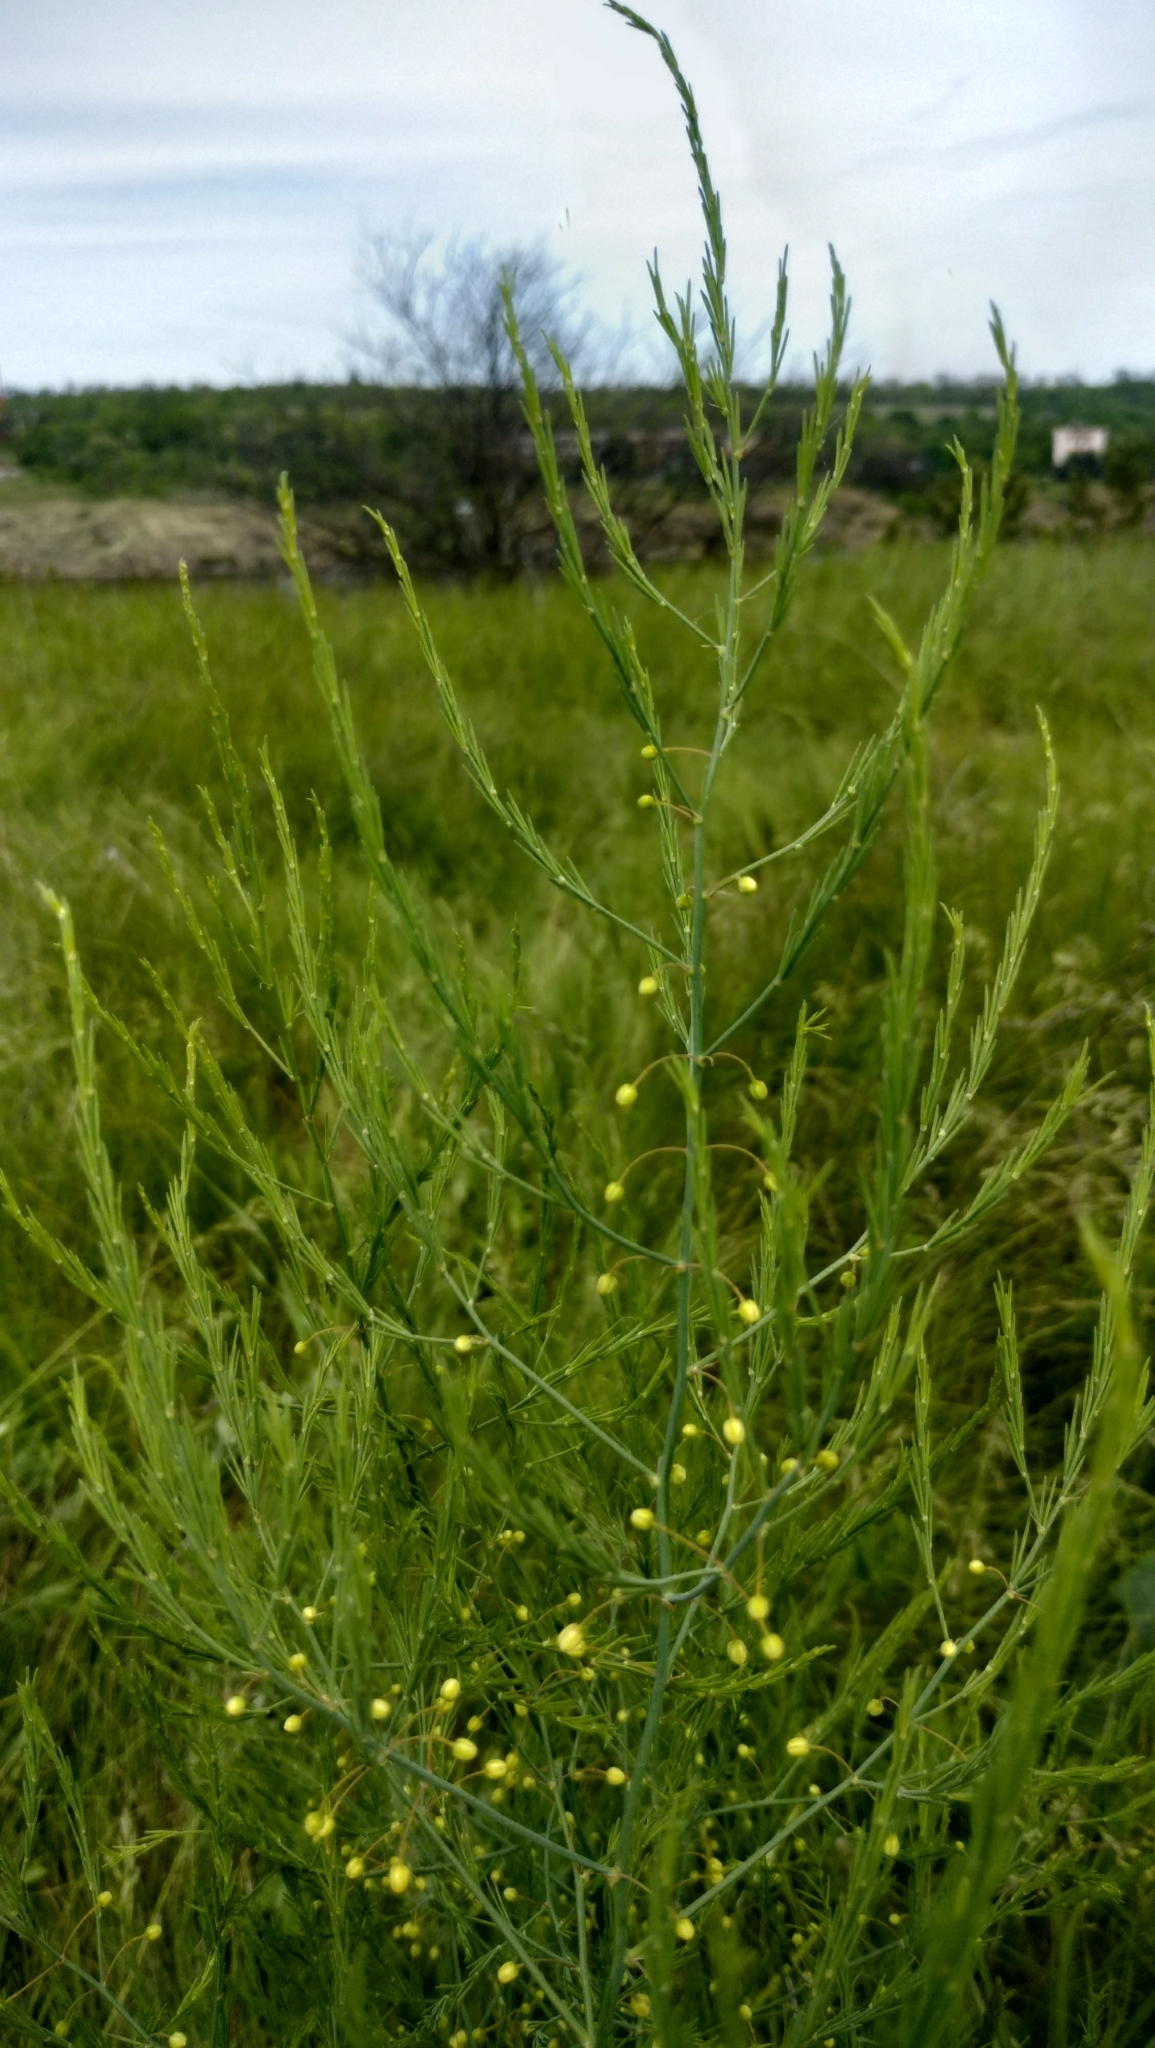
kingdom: Plantae
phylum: Tracheophyta
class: Liliopsida
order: Asparagales
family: Asparagaceae
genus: Asparagus
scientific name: Asparagus officinalis
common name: Garden asparagus
